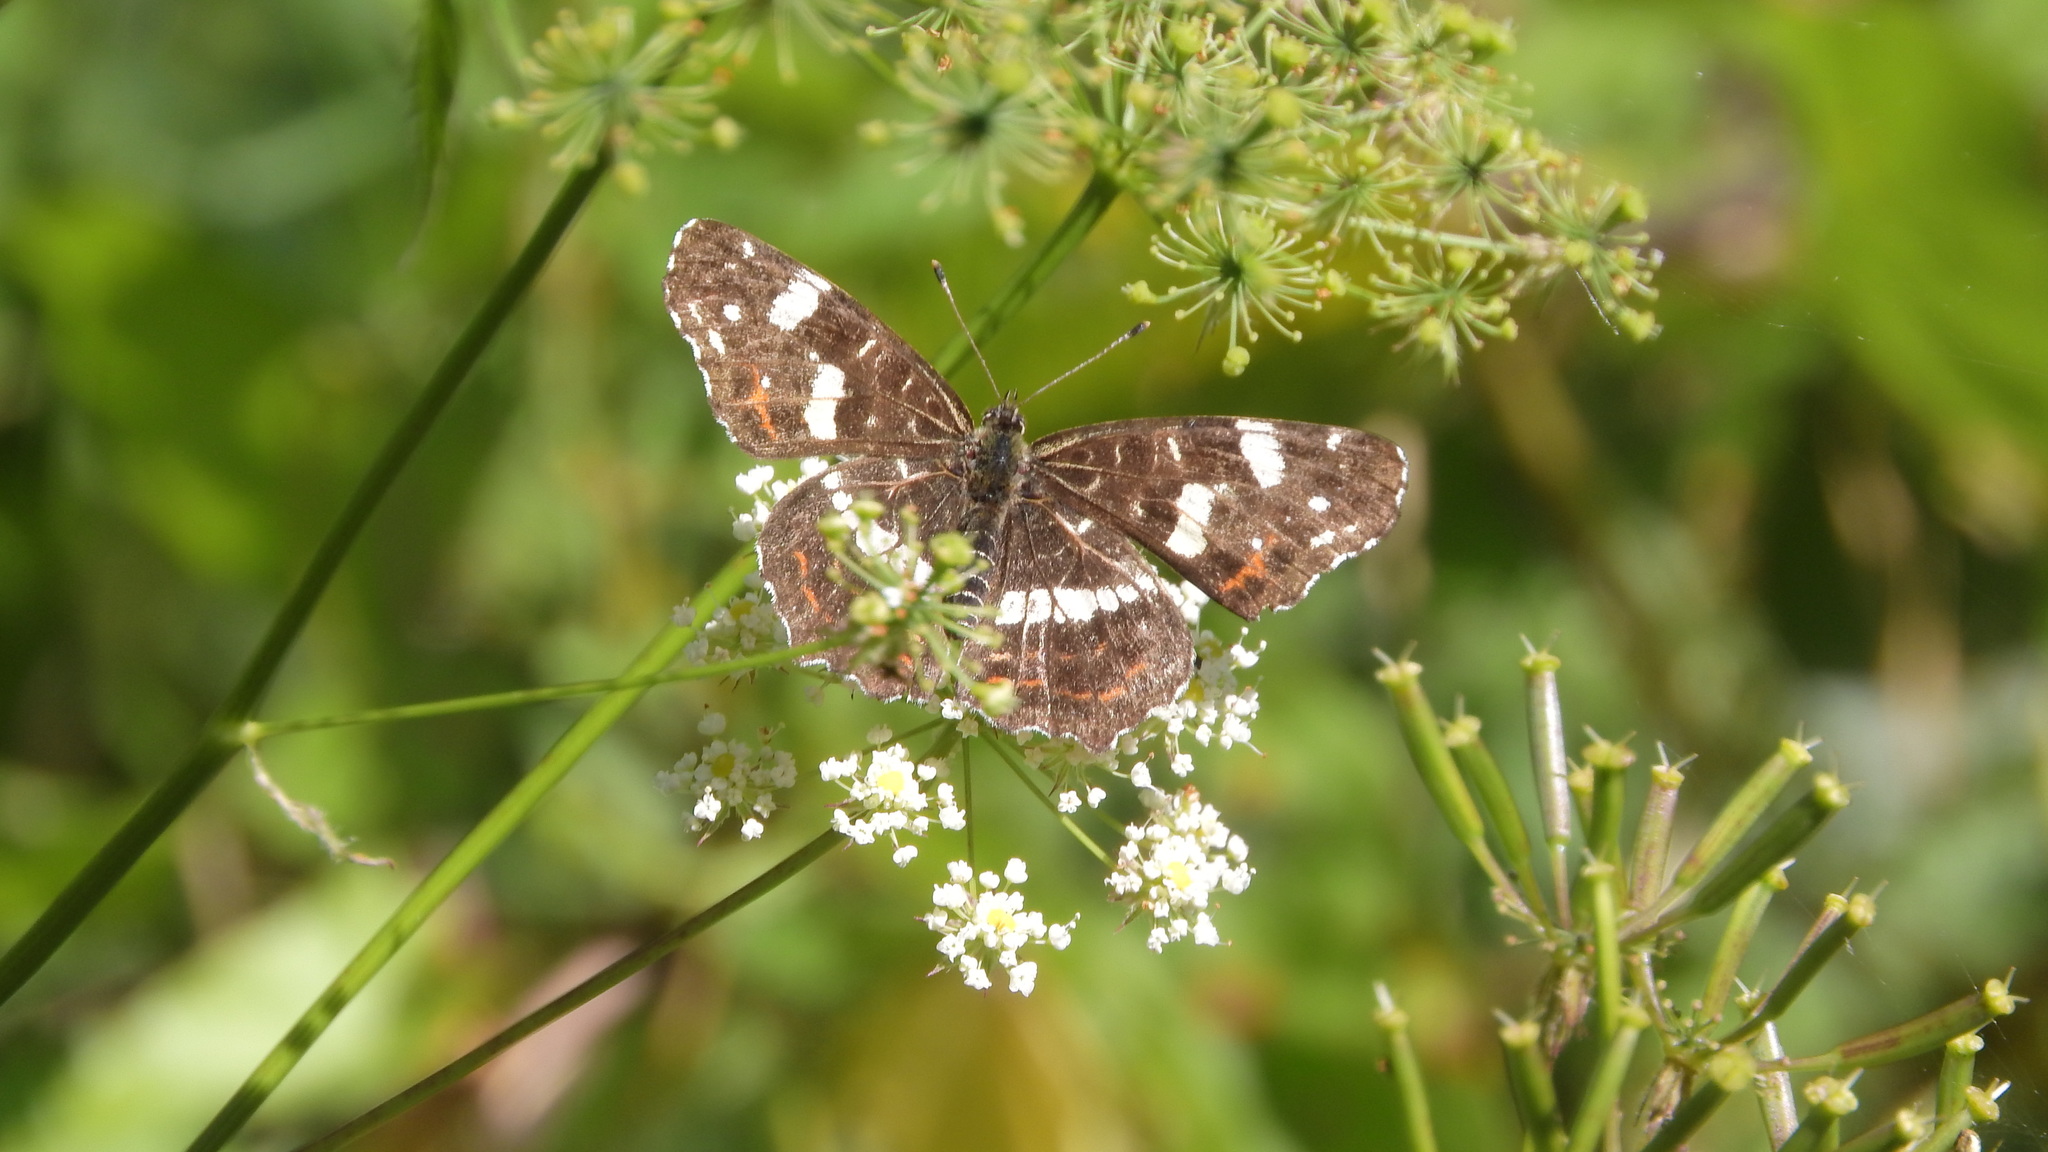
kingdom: Animalia
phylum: Arthropoda
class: Insecta
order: Lepidoptera
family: Nymphalidae
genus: Araschnia
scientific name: Araschnia levana
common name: Map butterfly
